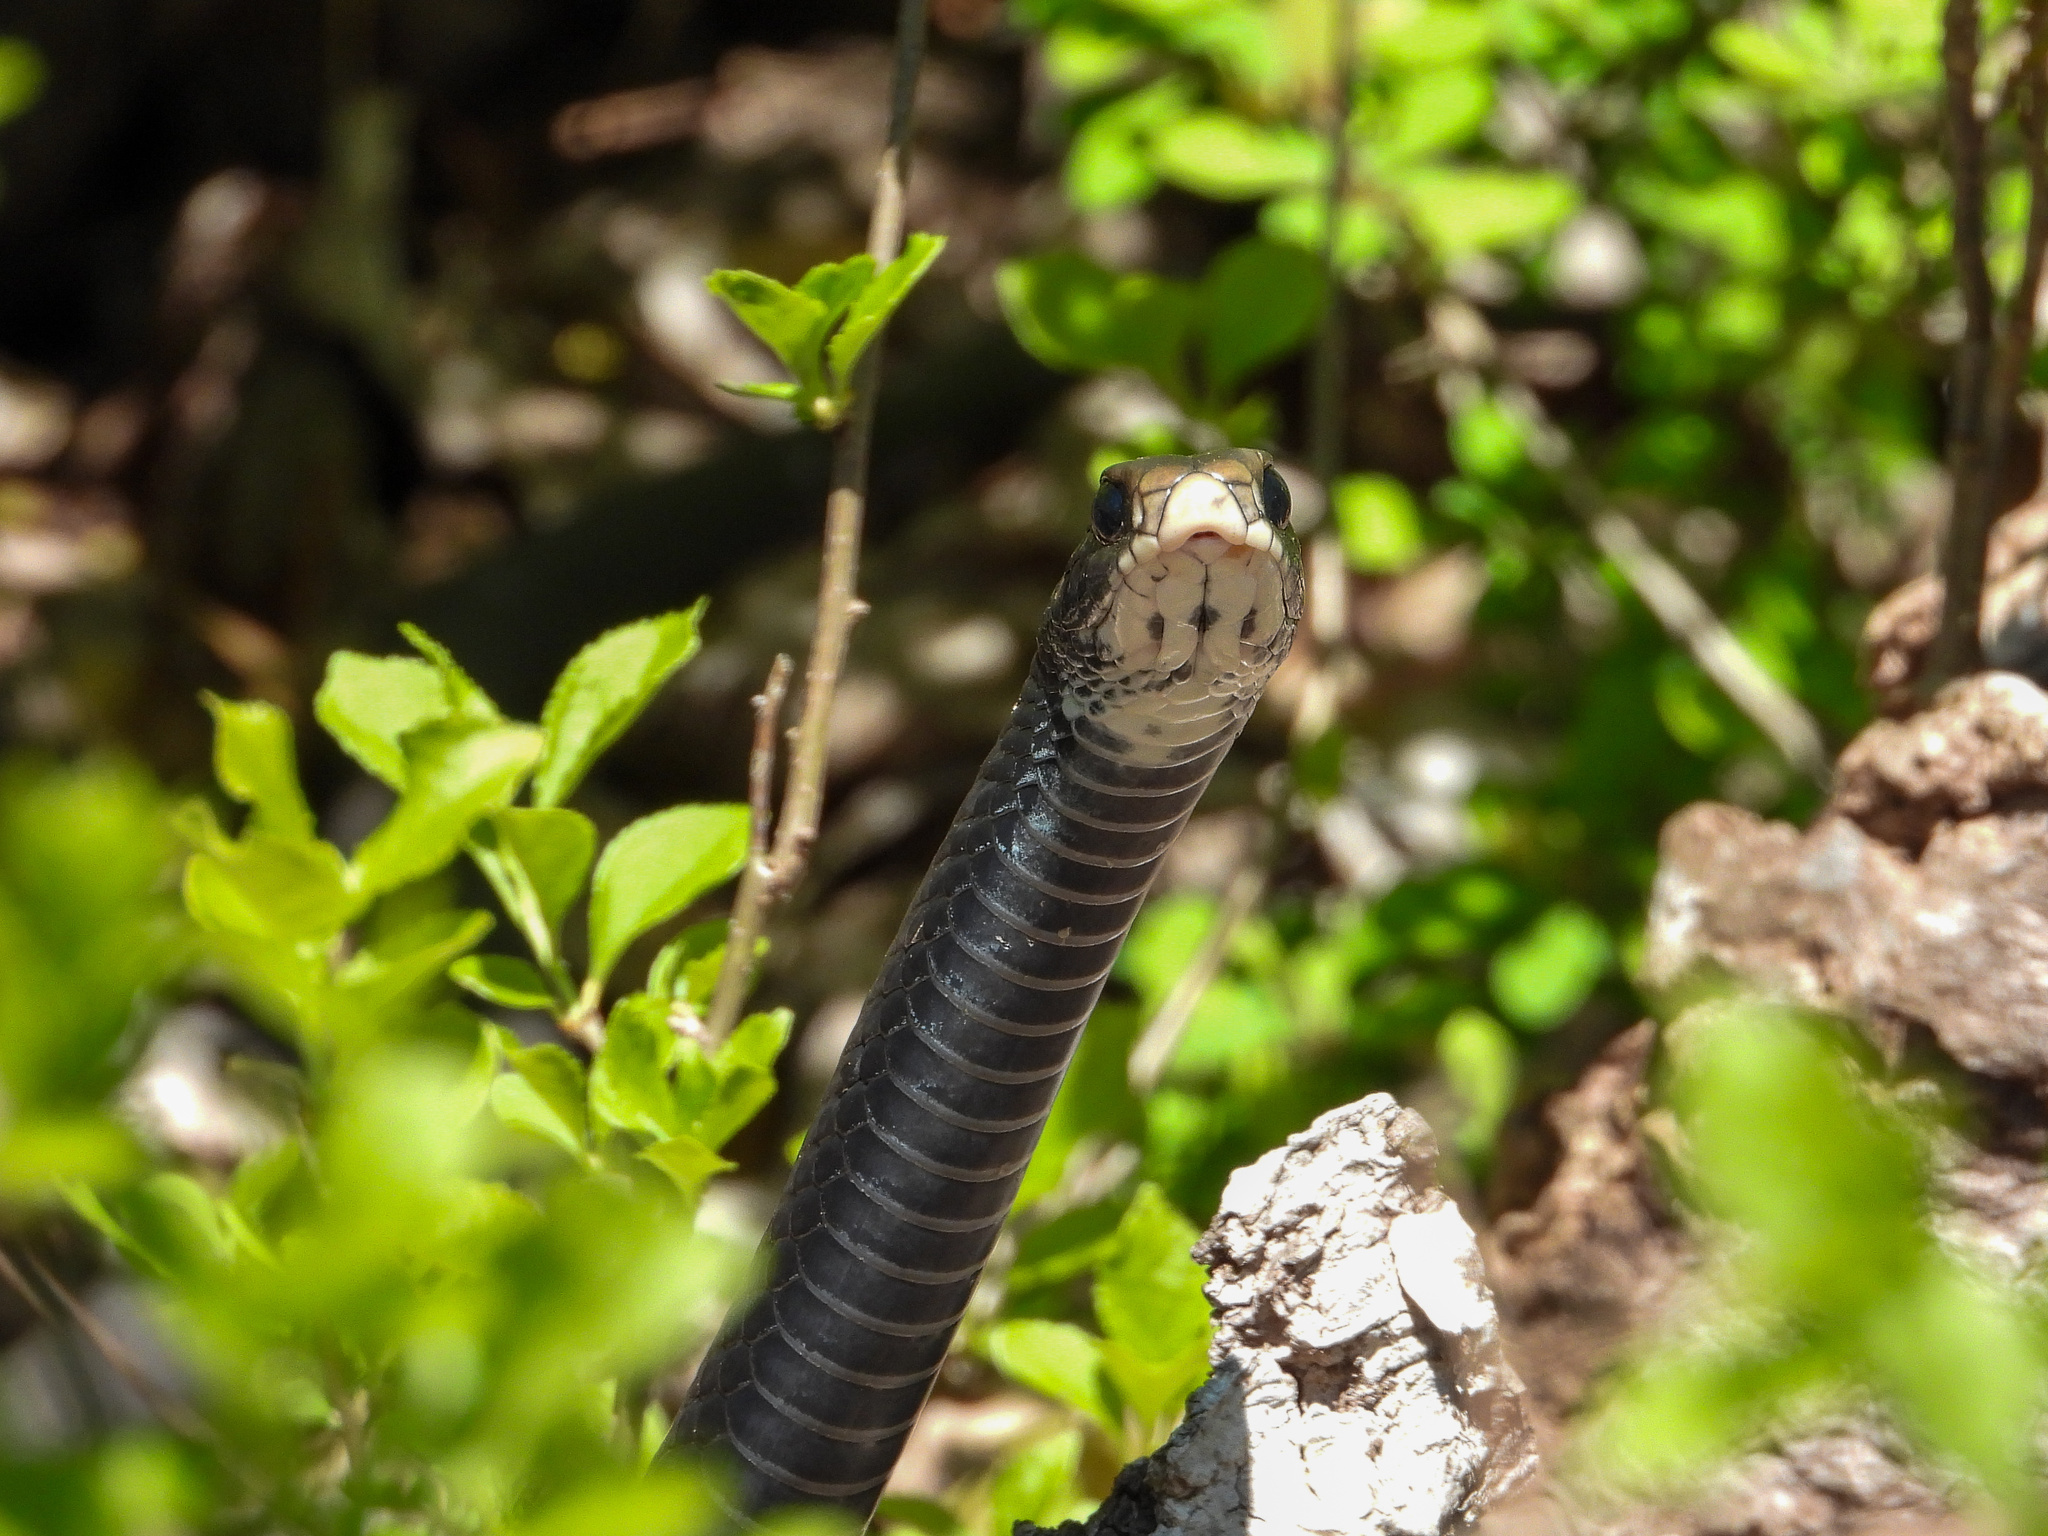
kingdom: Animalia
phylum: Chordata
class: Squamata
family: Colubridae
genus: Coluber
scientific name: Coluber constrictor
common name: Eastern racer
